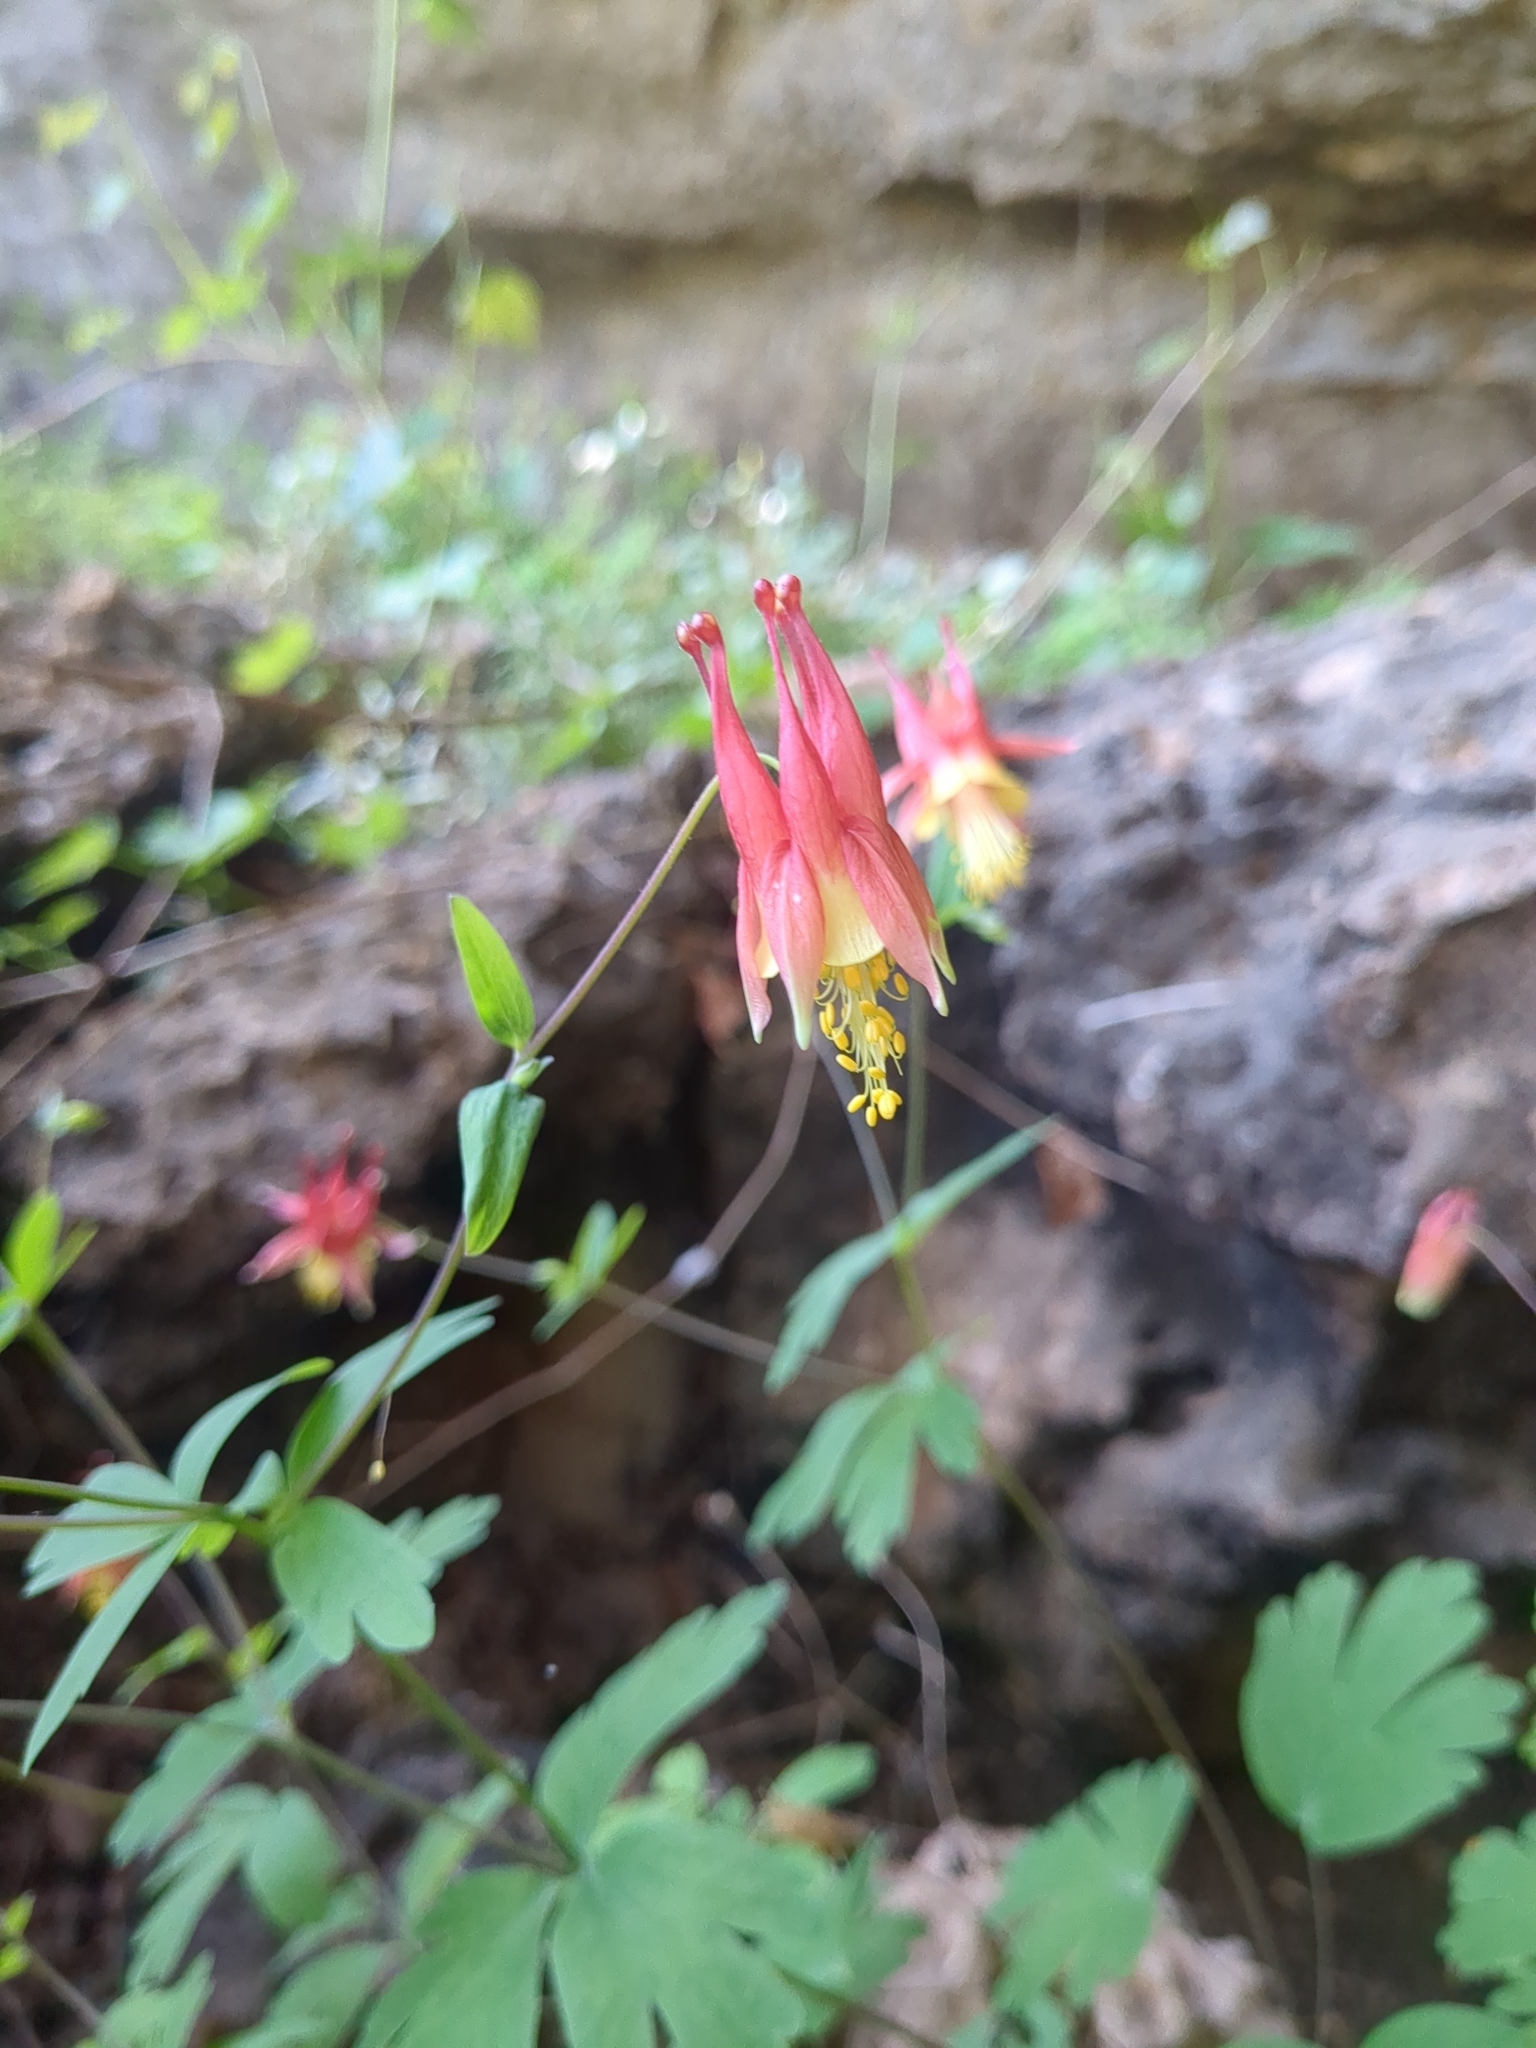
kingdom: Plantae
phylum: Tracheophyta
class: Magnoliopsida
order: Ranunculales
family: Ranunculaceae
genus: Aquilegia
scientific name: Aquilegia canadensis
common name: American columbine
